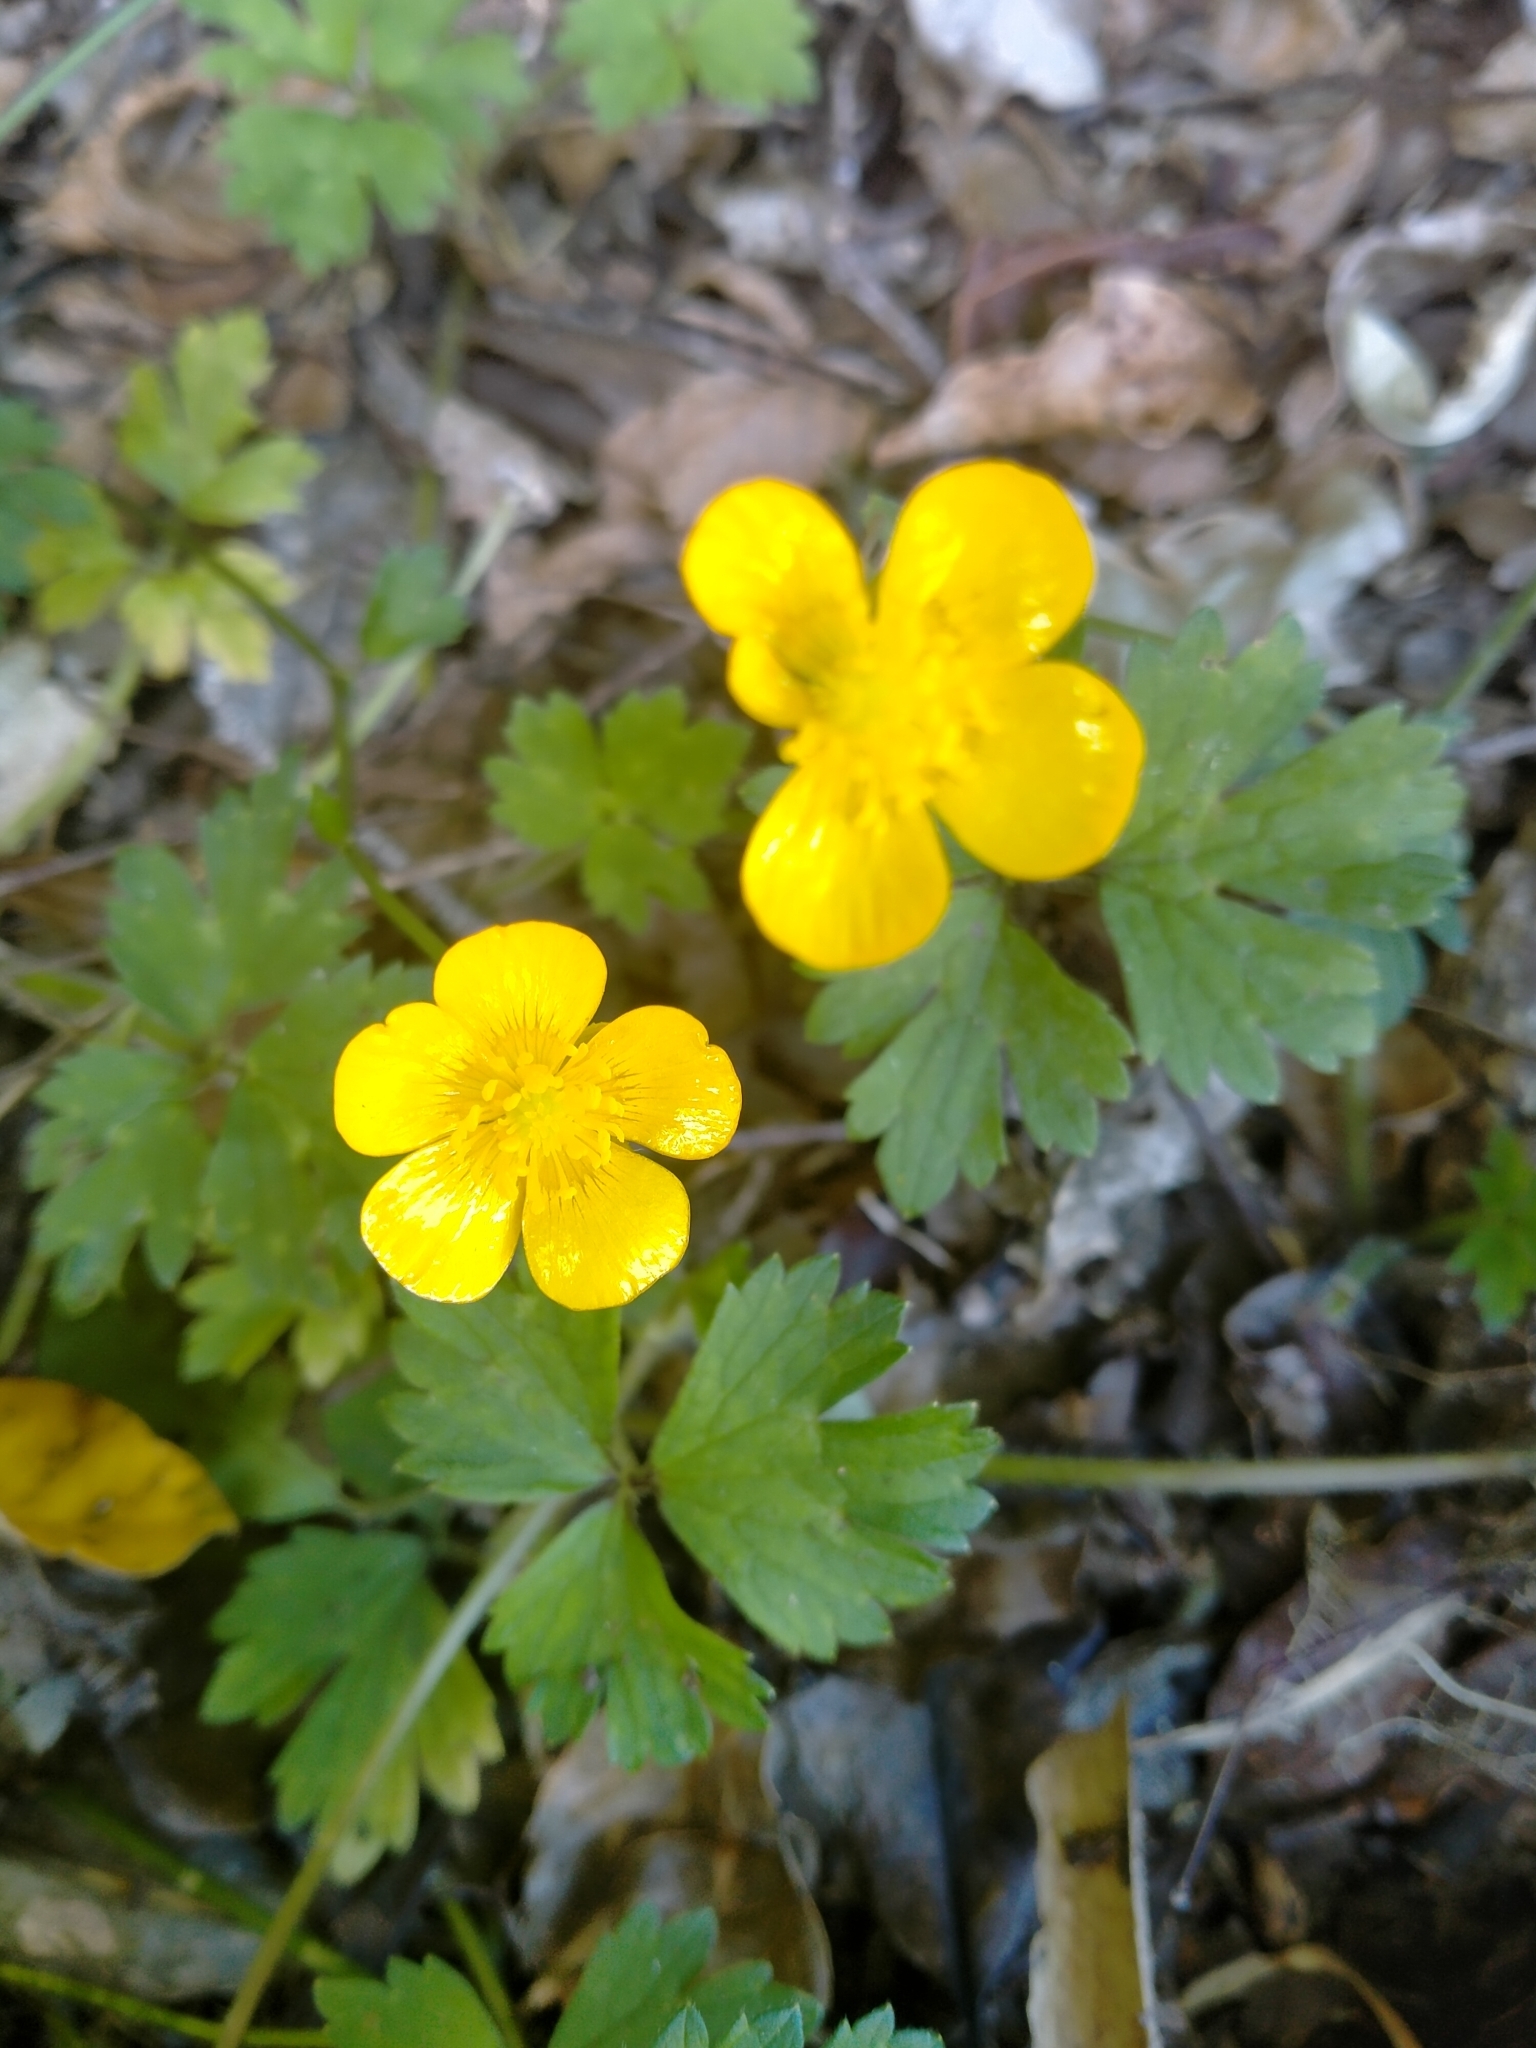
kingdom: Plantae
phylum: Tracheophyta
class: Magnoliopsida
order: Ranunculales
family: Ranunculaceae
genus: Ranunculus
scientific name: Ranunculus repens
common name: Creeping buttercup
